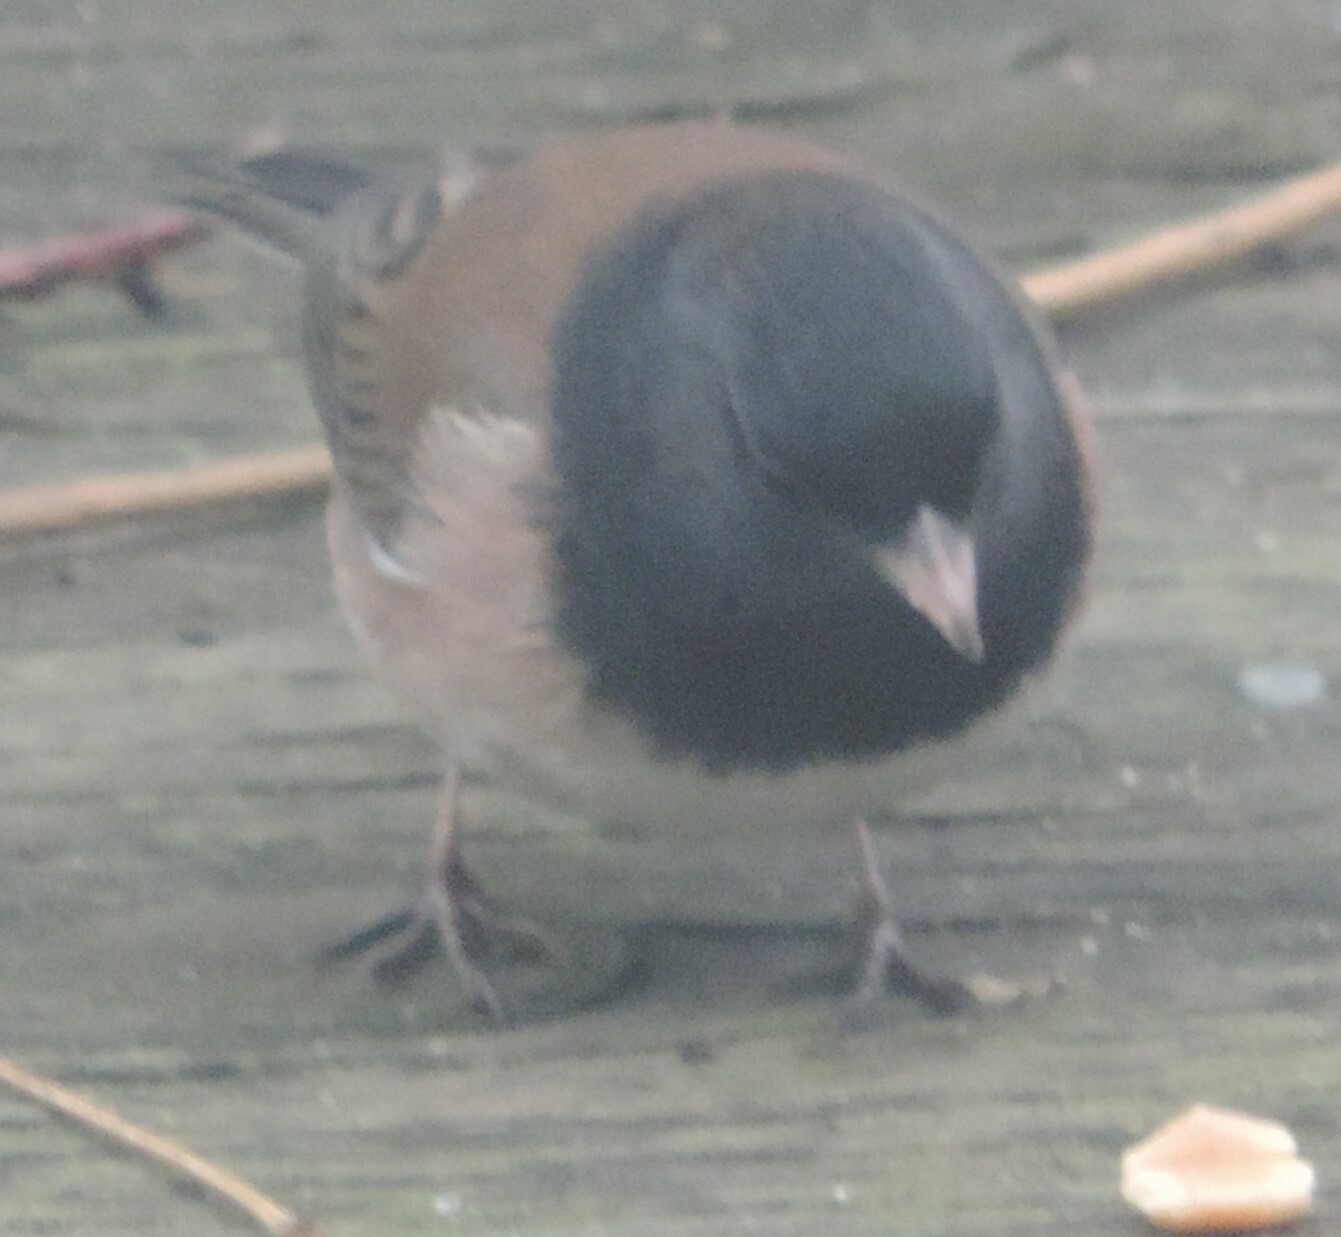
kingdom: Animalia
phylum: Chordata
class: Aves
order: Passeriformes
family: Passerellidae
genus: Junco
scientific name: Junco hyemalis
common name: Dark-eyed junco
